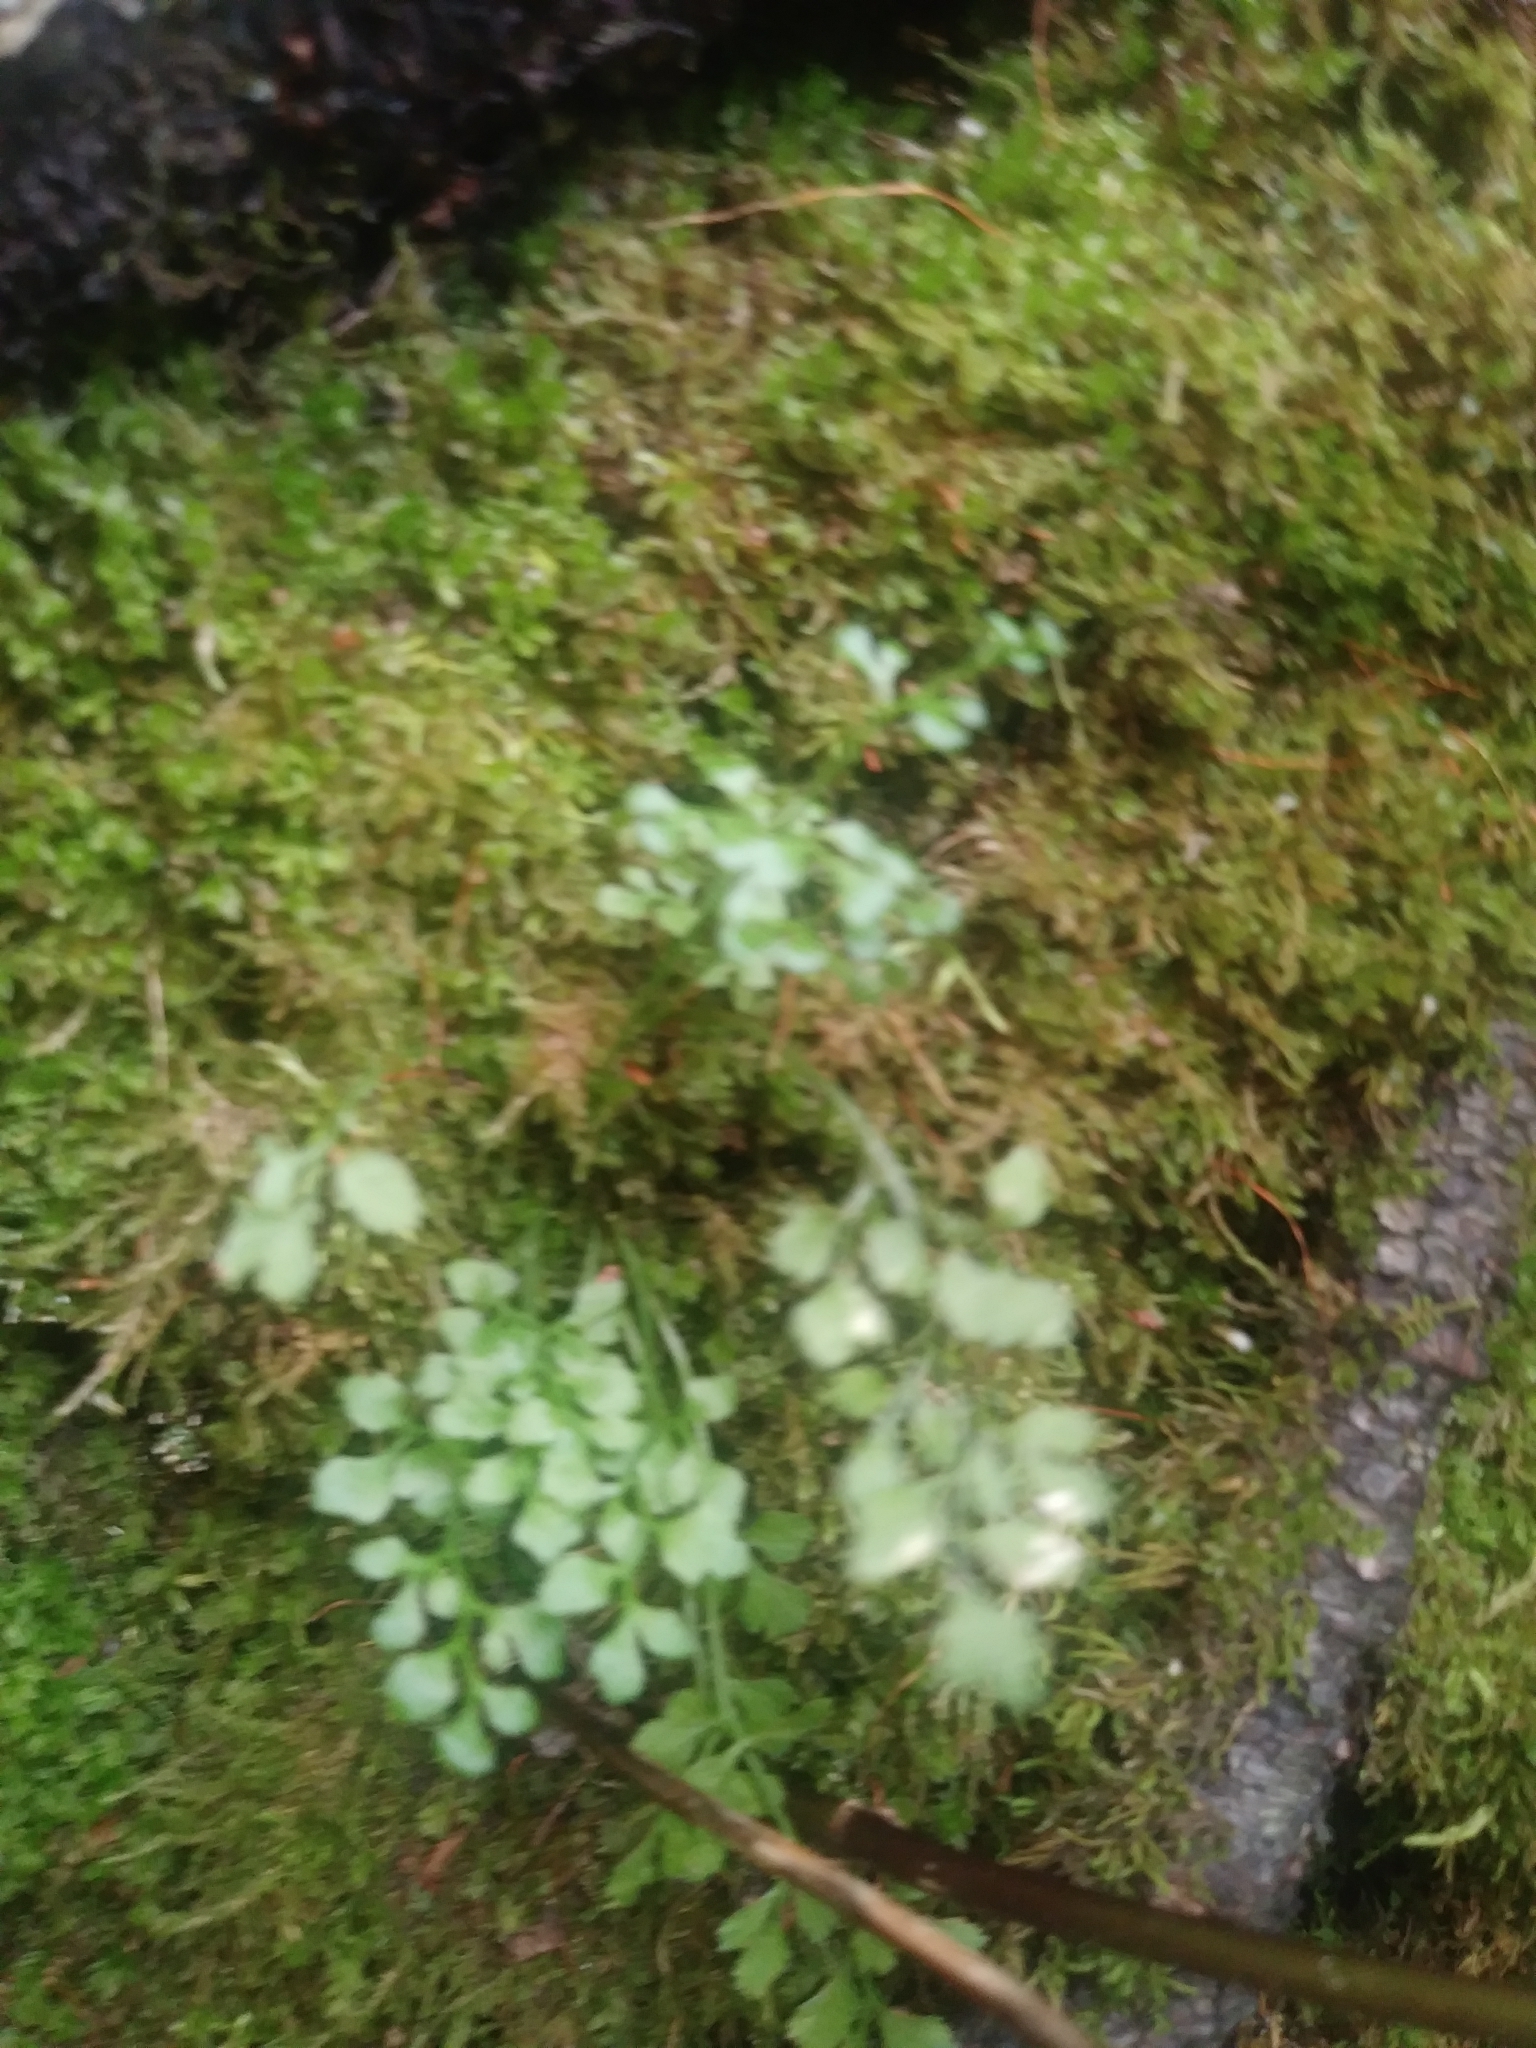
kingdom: Plantae
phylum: Tracheophyta
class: Polypodiopsida
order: Polypodiales
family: Aspleniaceae
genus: Asplenium
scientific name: Asplenium ruta-muraria
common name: Wall-rue
